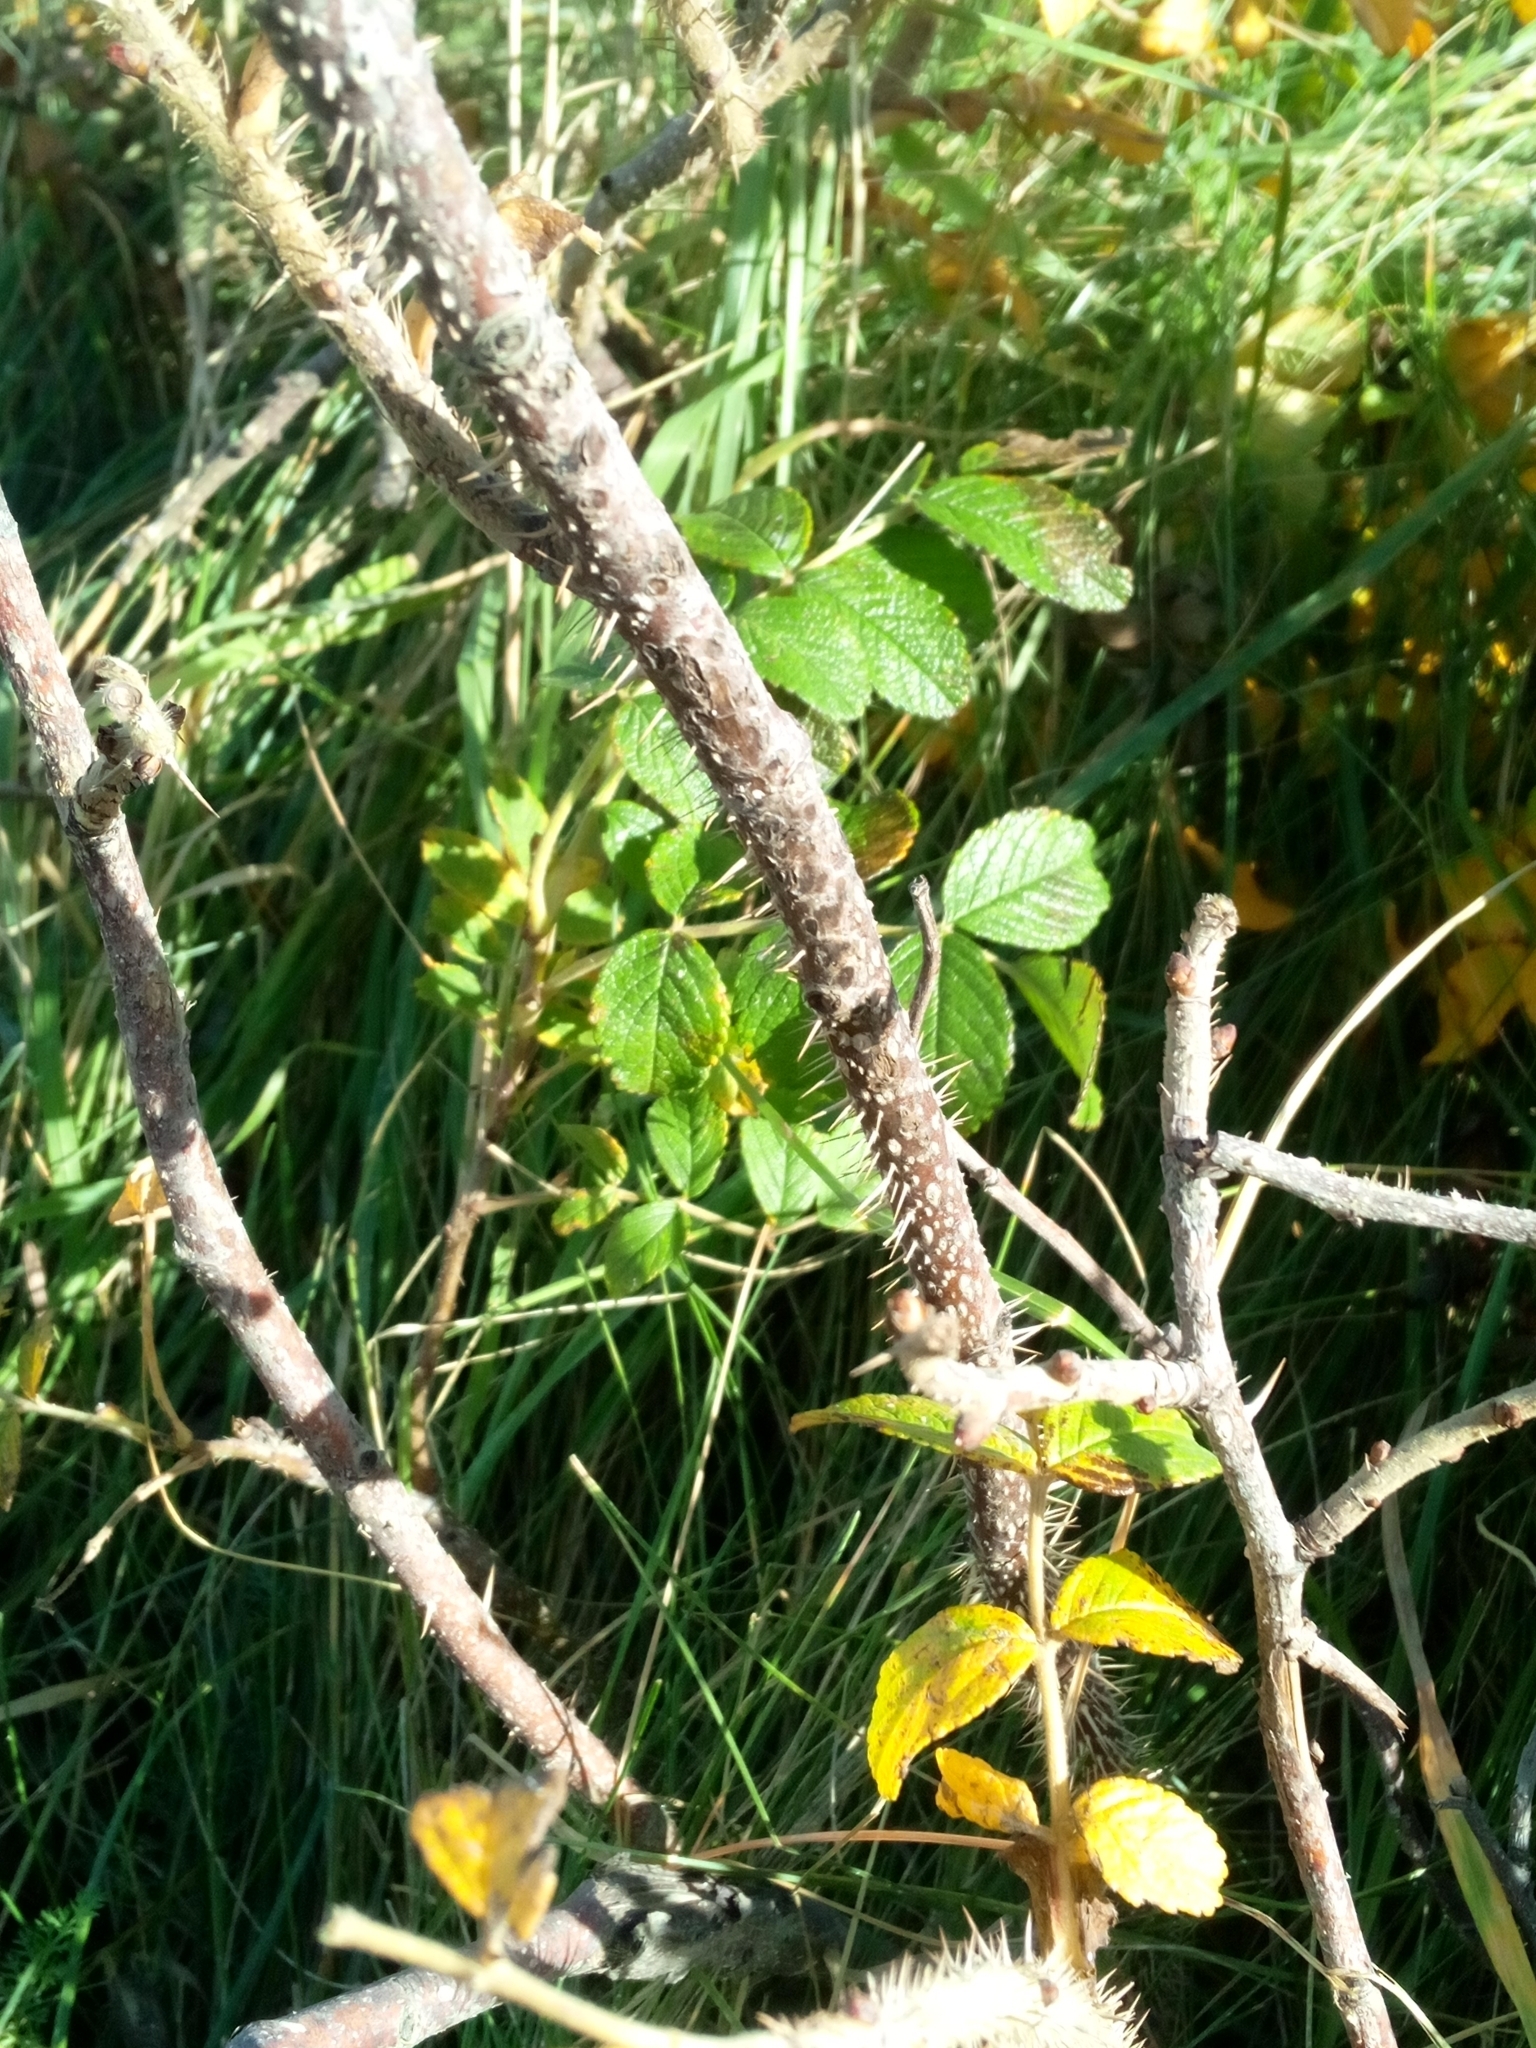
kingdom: Plantae
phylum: Tracheophyta
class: Magnoliopsida
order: Rosales
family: Rosaceae
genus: Rosa
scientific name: Rosa rugosa
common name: Japanese rose
